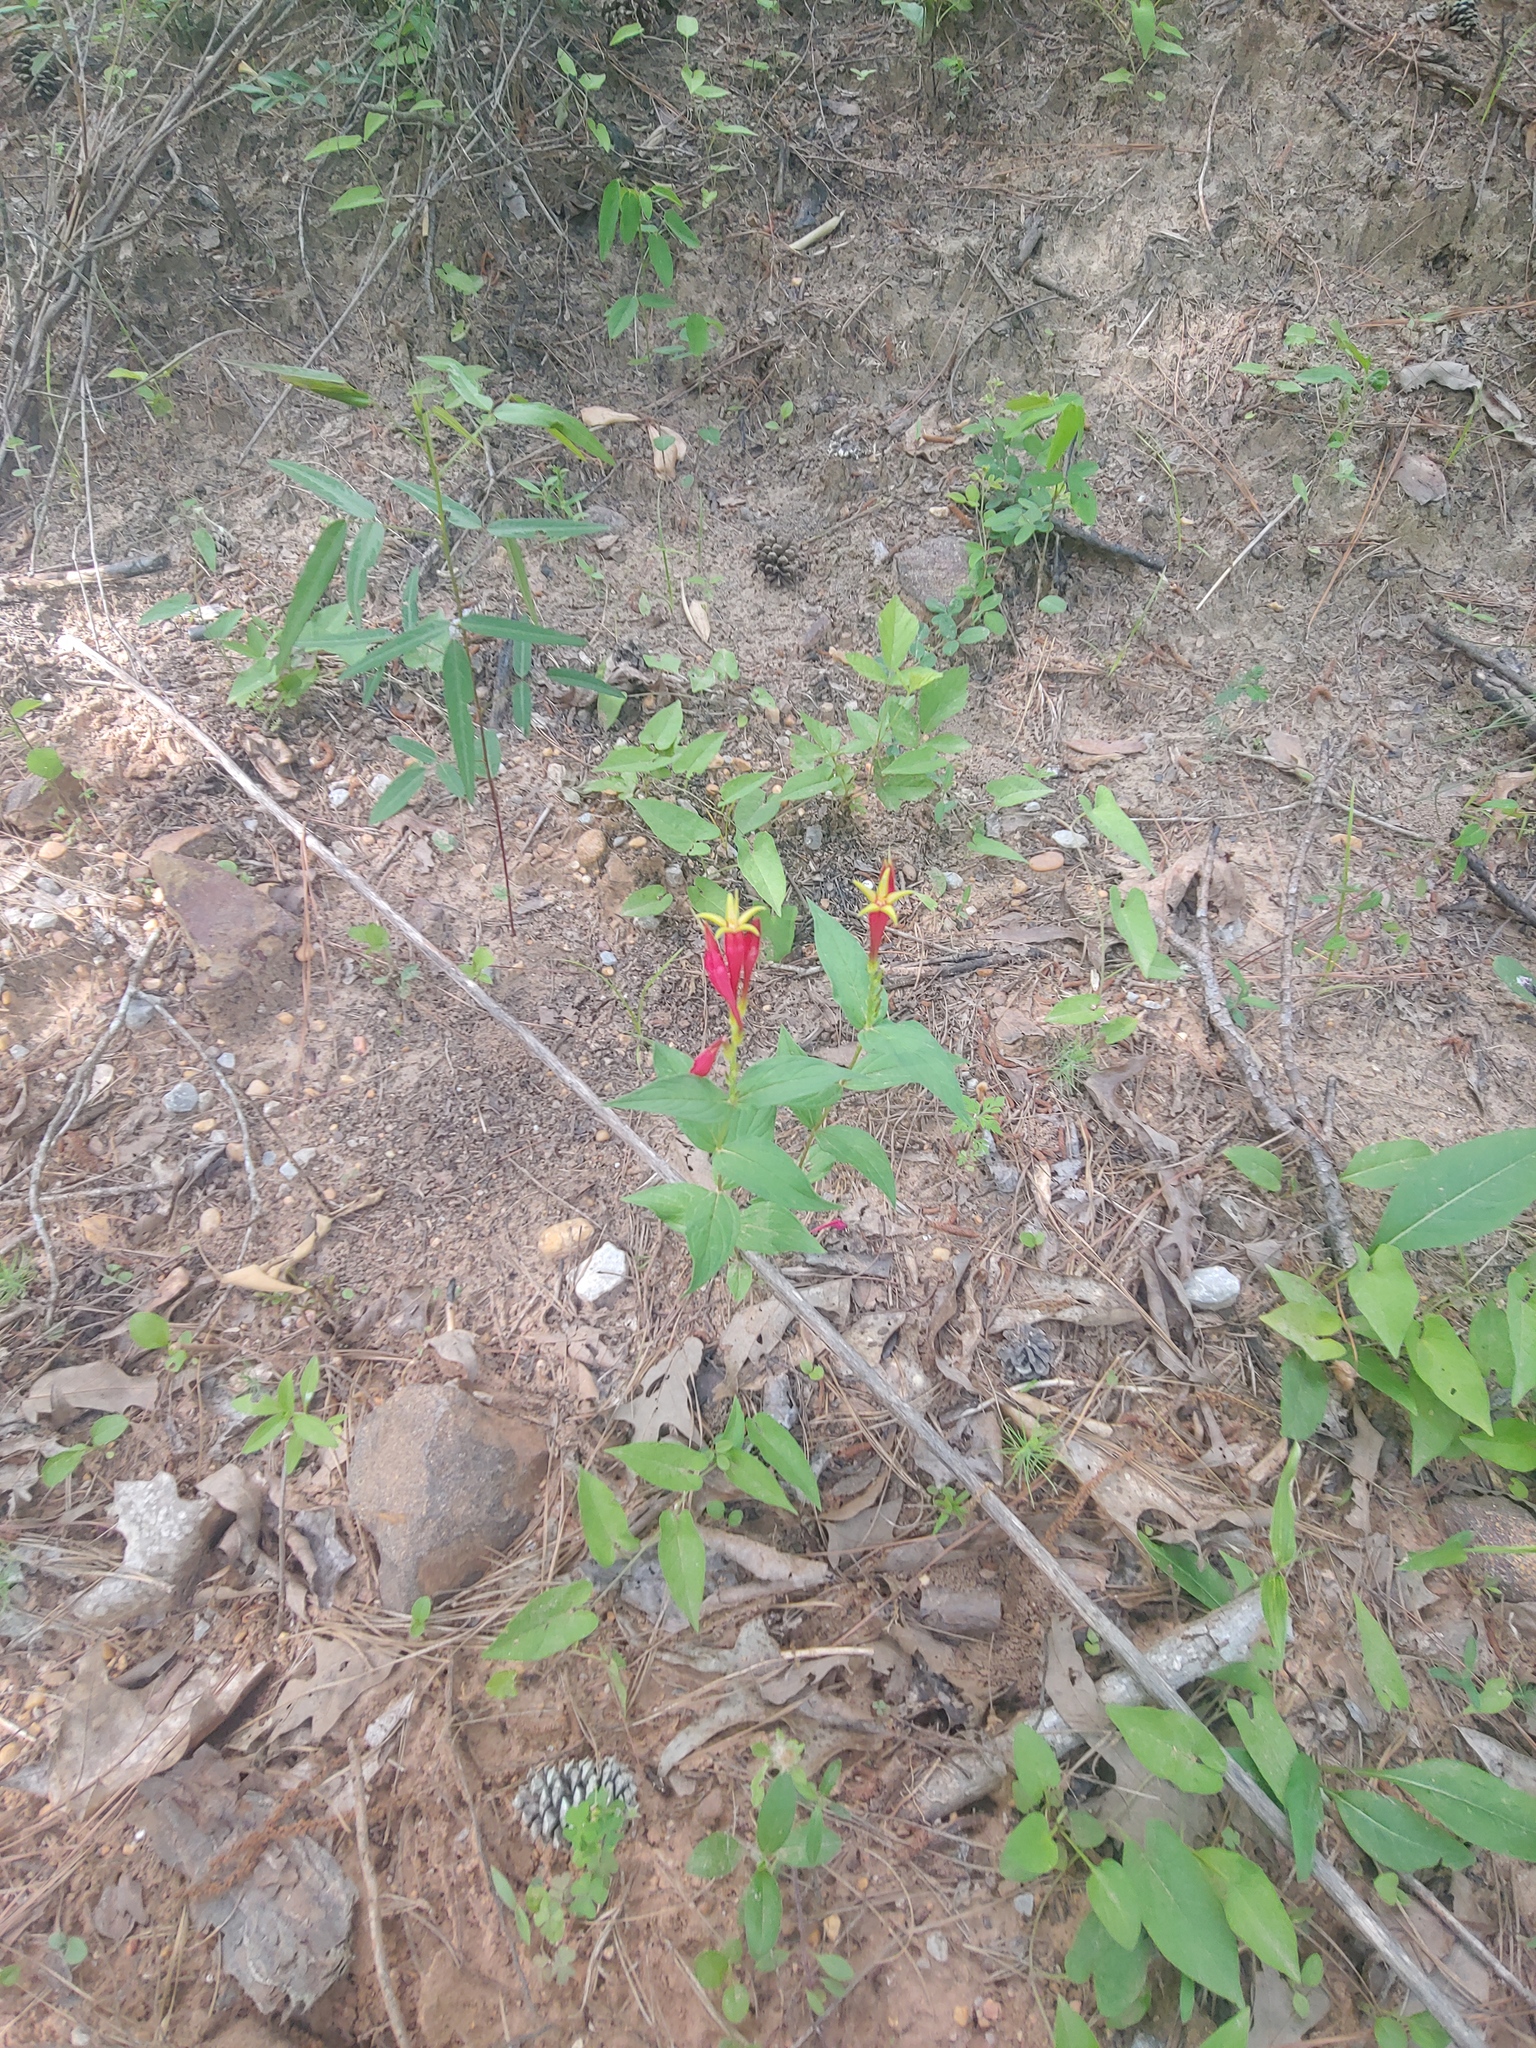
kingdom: Plantae
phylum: Tracheophyta
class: Magnoliopsida
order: Gentianales
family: Loganiaceae
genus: Spigelia
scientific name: Spigelia marilandica
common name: Indian-pink
